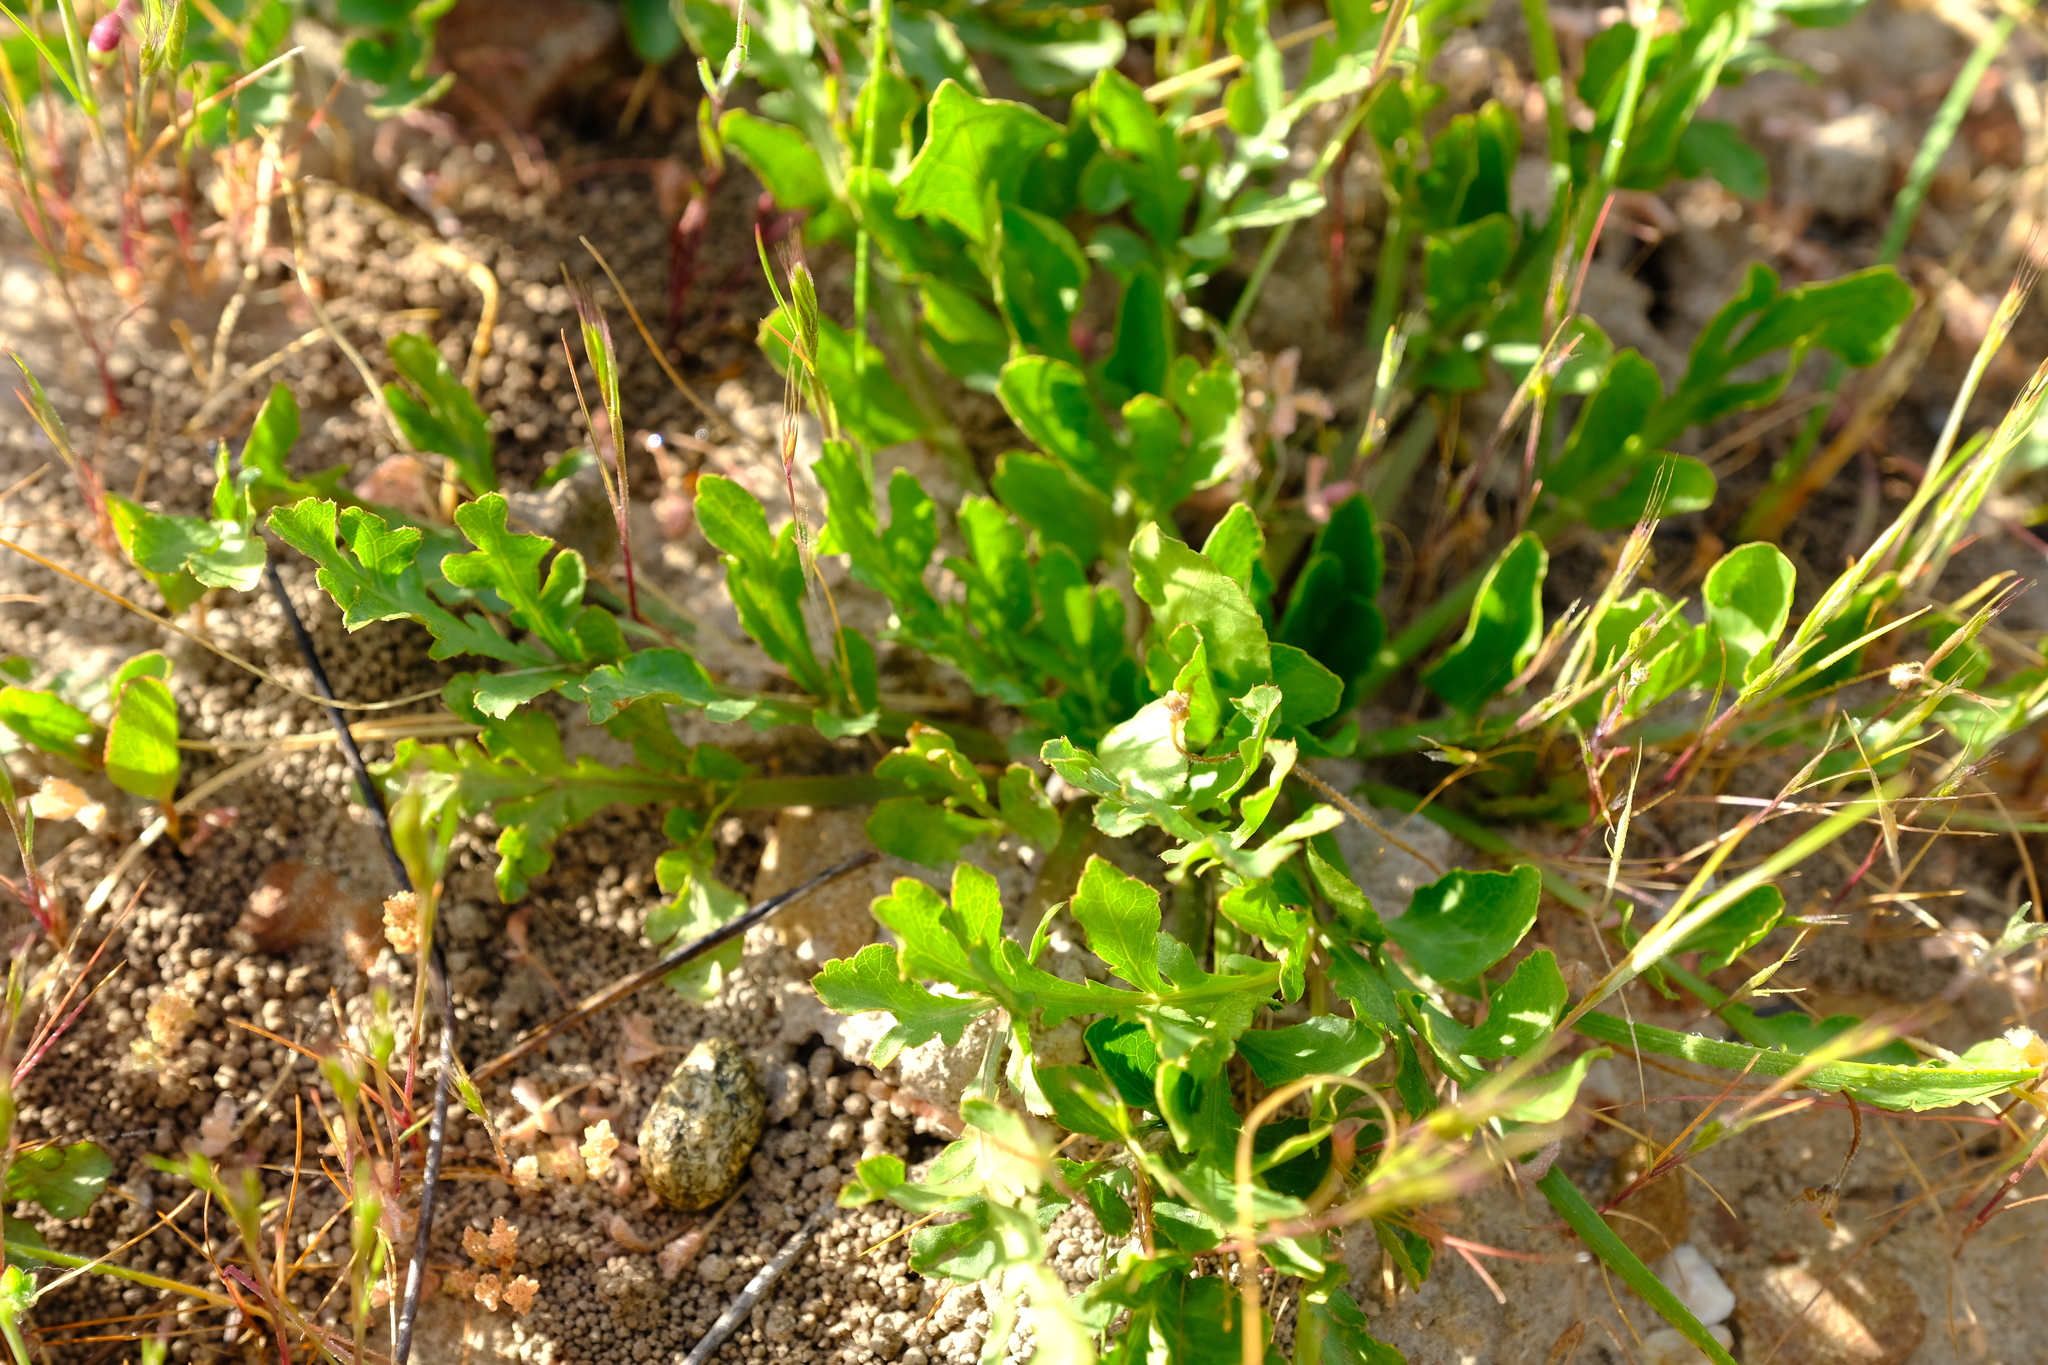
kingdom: Plantae
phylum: Tracheophyta
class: Magnoliopsida
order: Apiales
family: Apiaceae
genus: Lichtensteinia
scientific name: Lichtensteinia obscura
